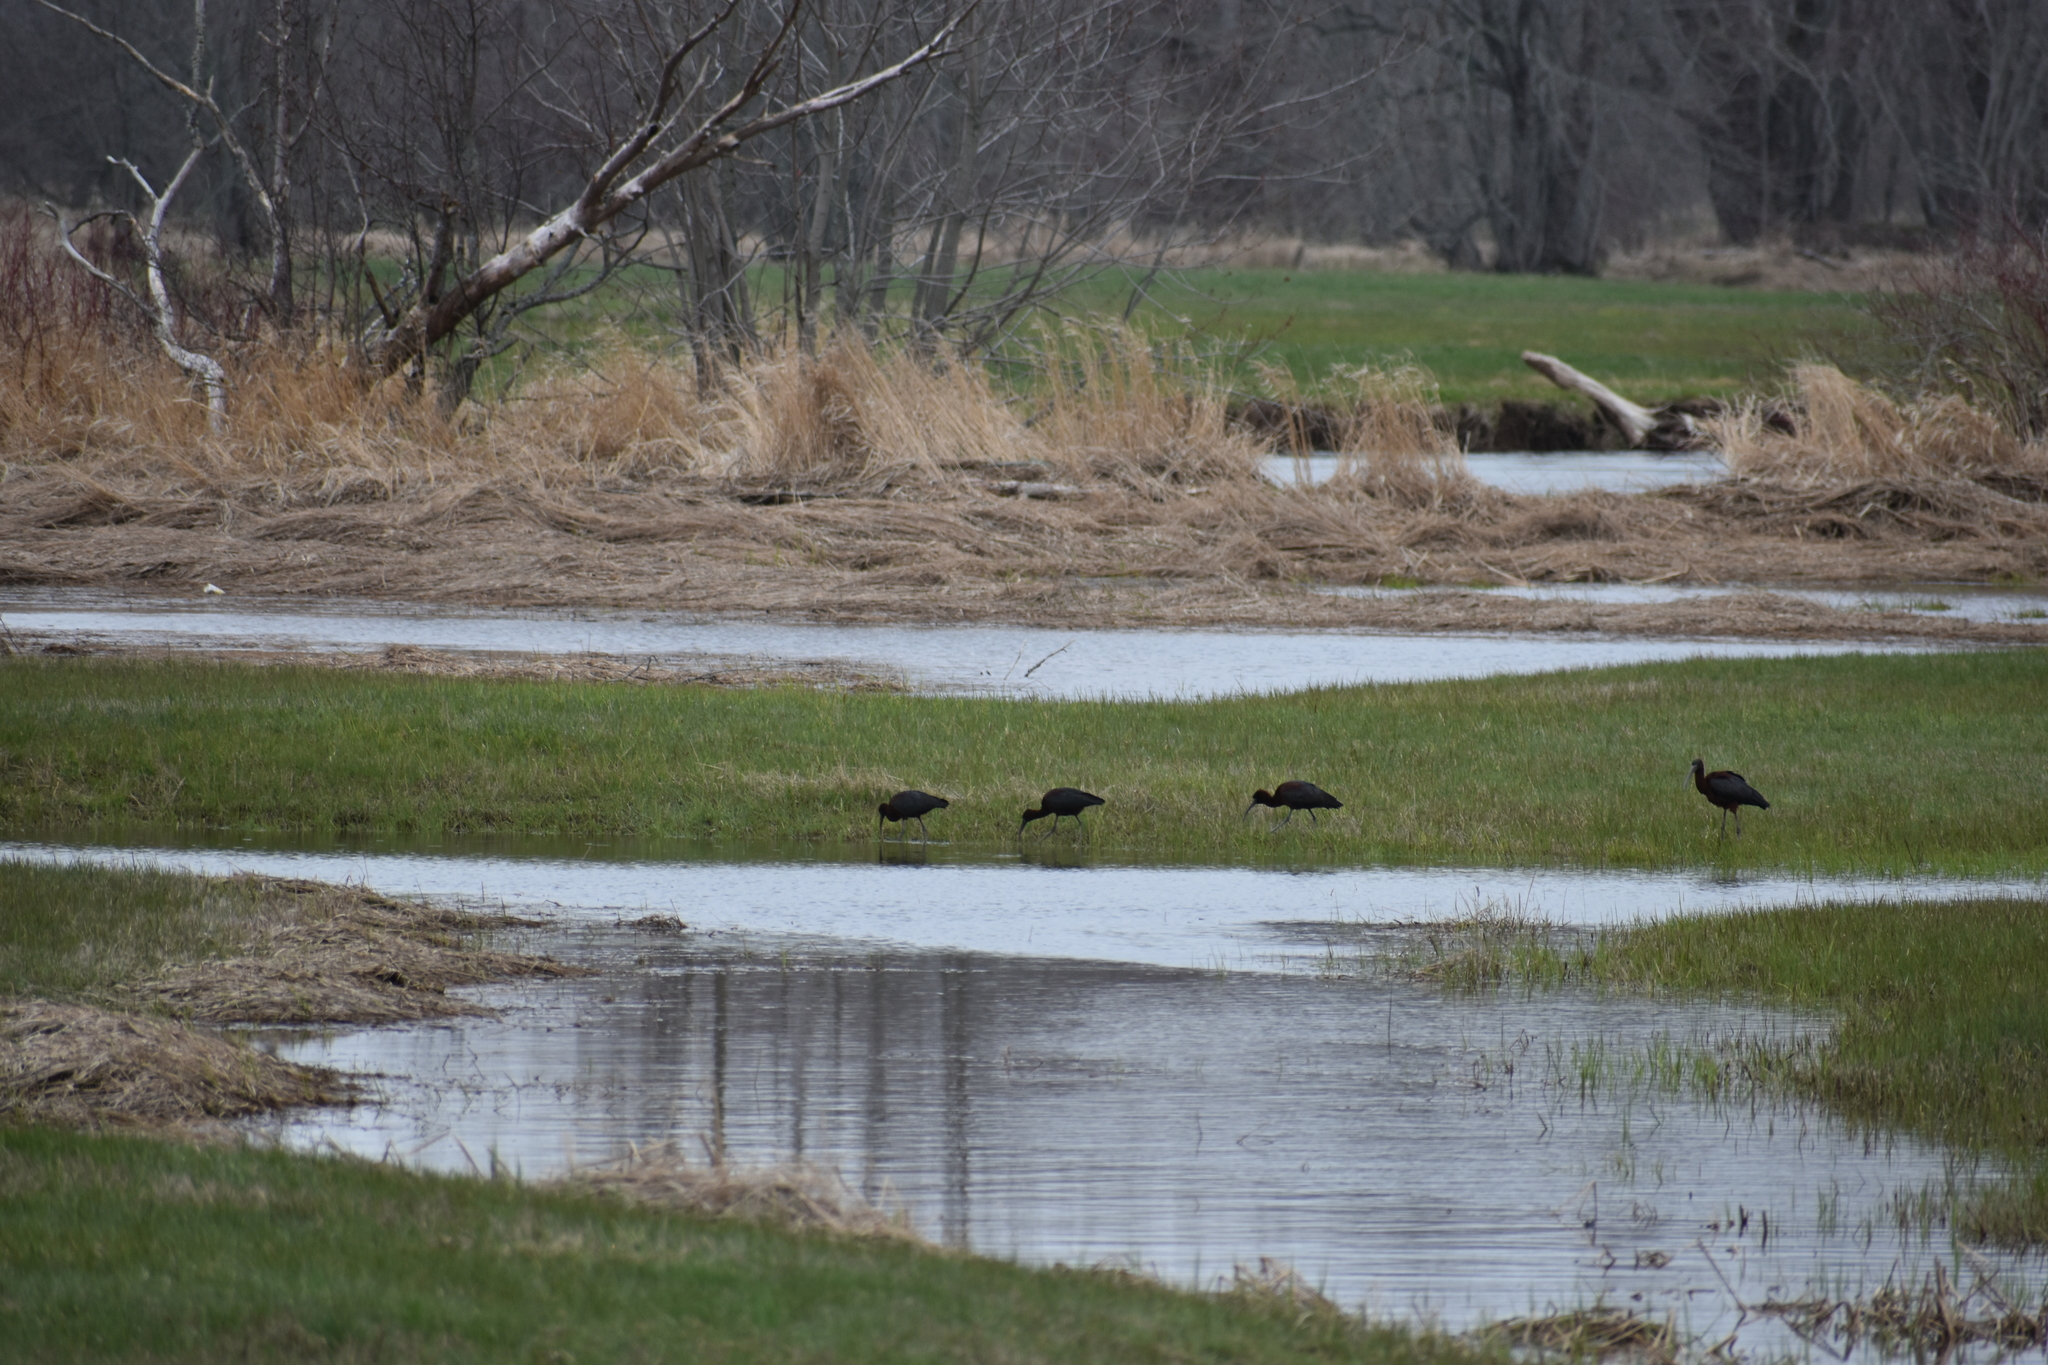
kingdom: Animalia
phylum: Chordata
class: Aves
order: Pelecaniformes
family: Threskiornithidae
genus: Plegadis
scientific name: Plegadis falcinellus
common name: Glossy ibis
